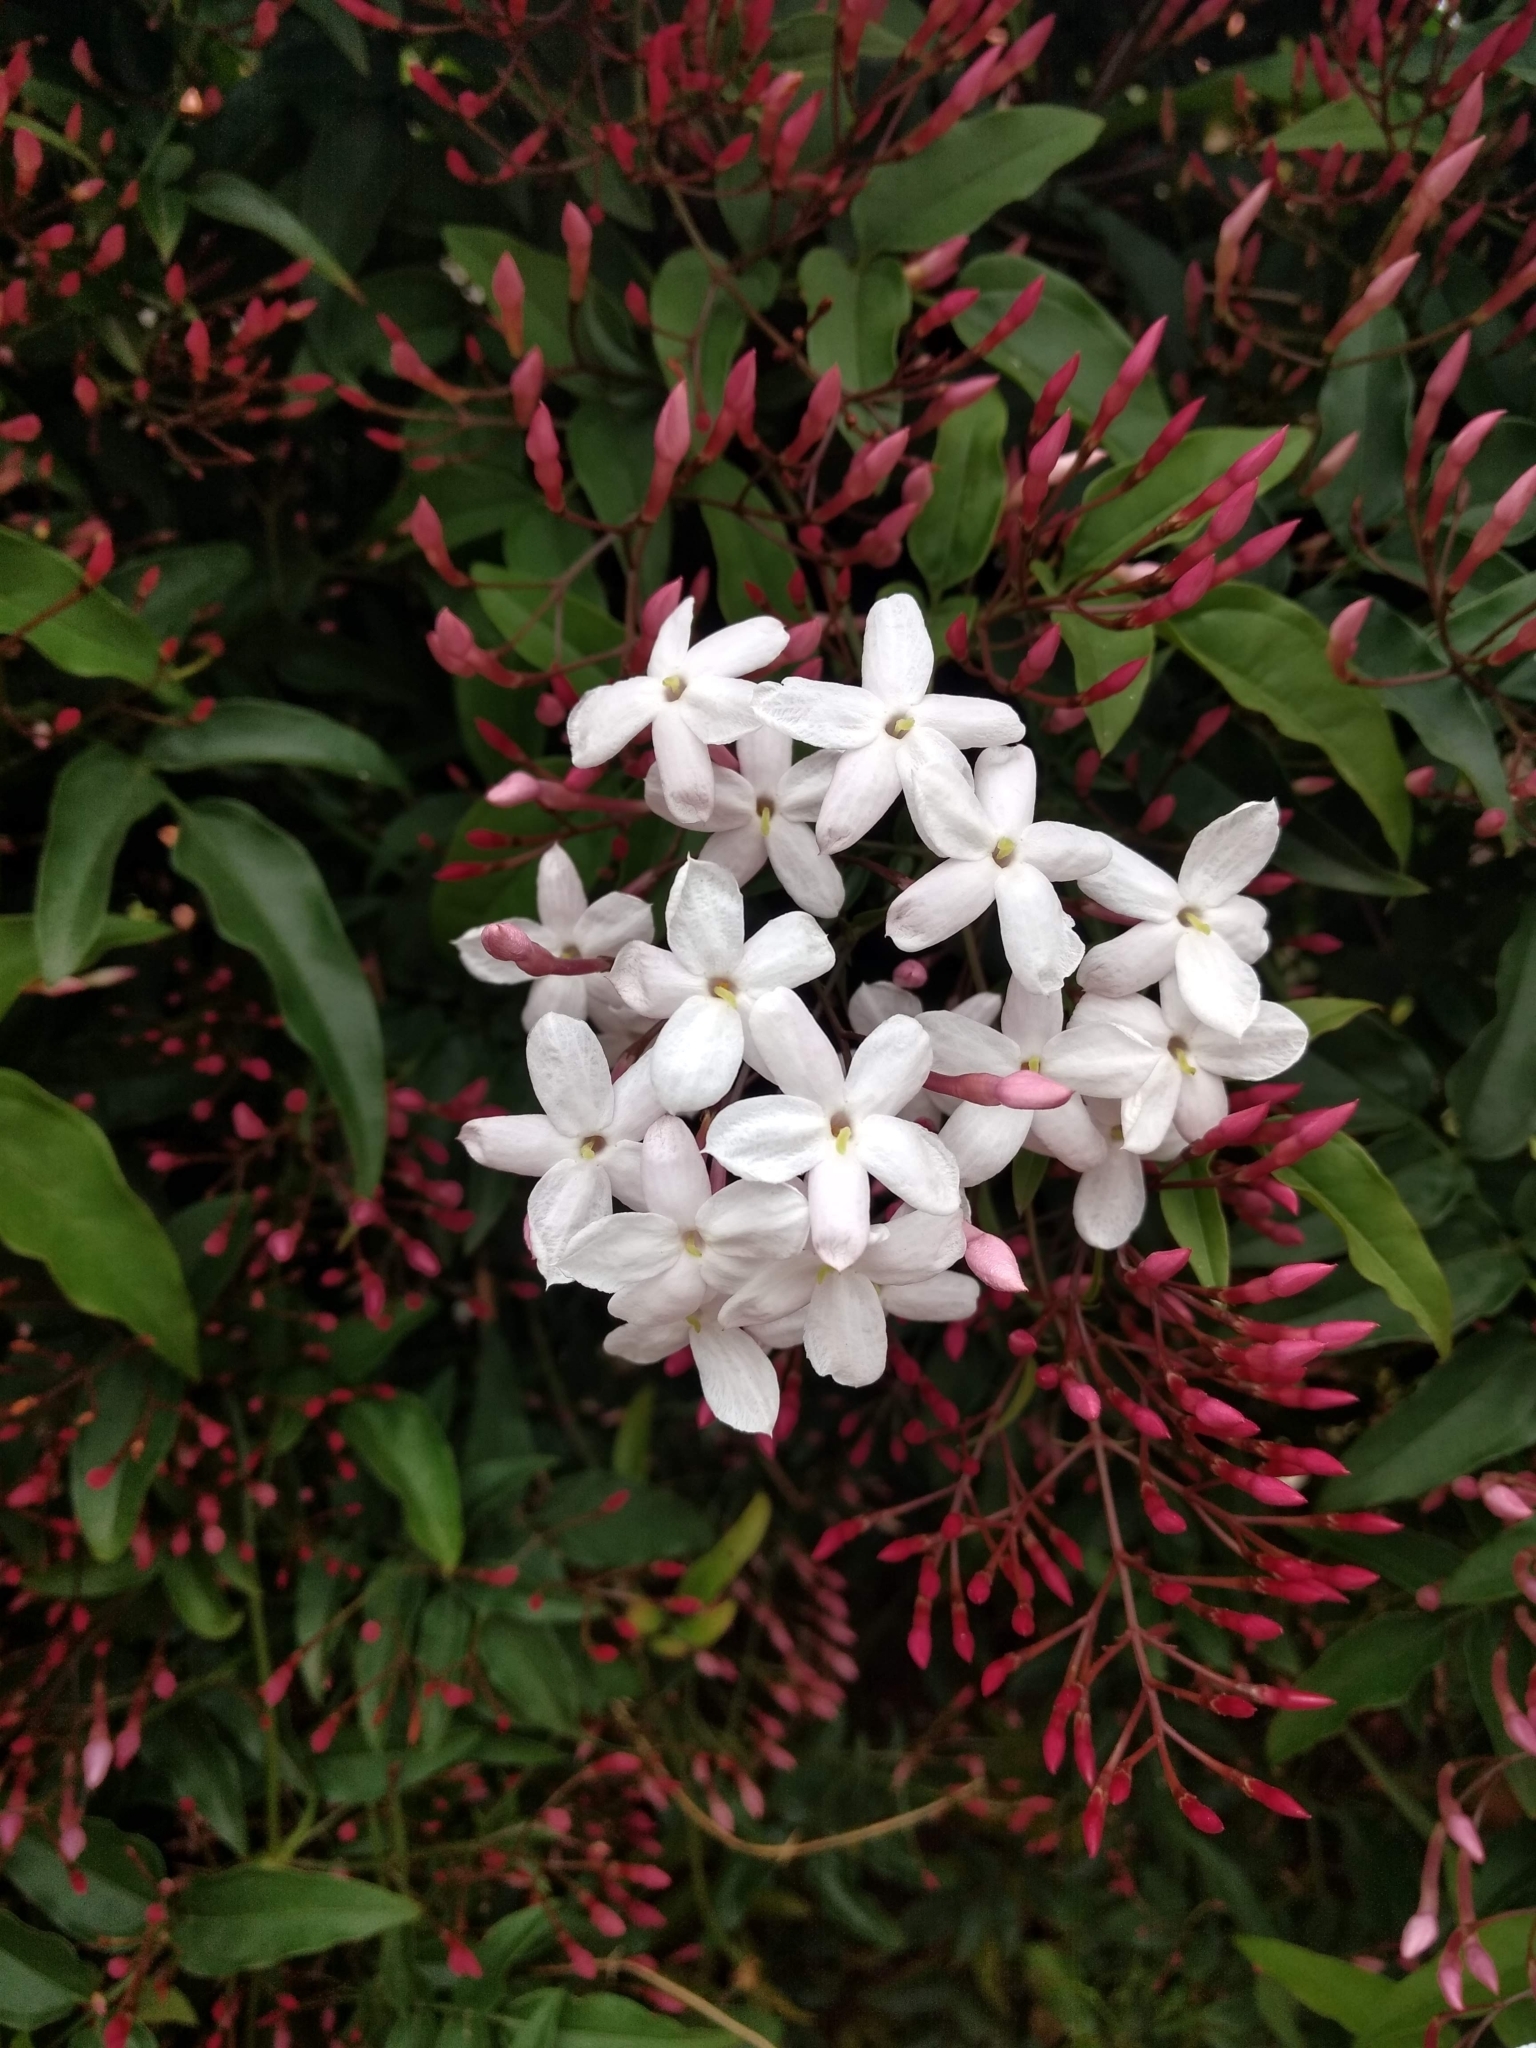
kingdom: Plantae
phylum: Tracheophyta
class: Magnoliopsida
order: Lamiales
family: Oleaceae
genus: Jasminum
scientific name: Jasminum polyanthum
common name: Pink jasmine
